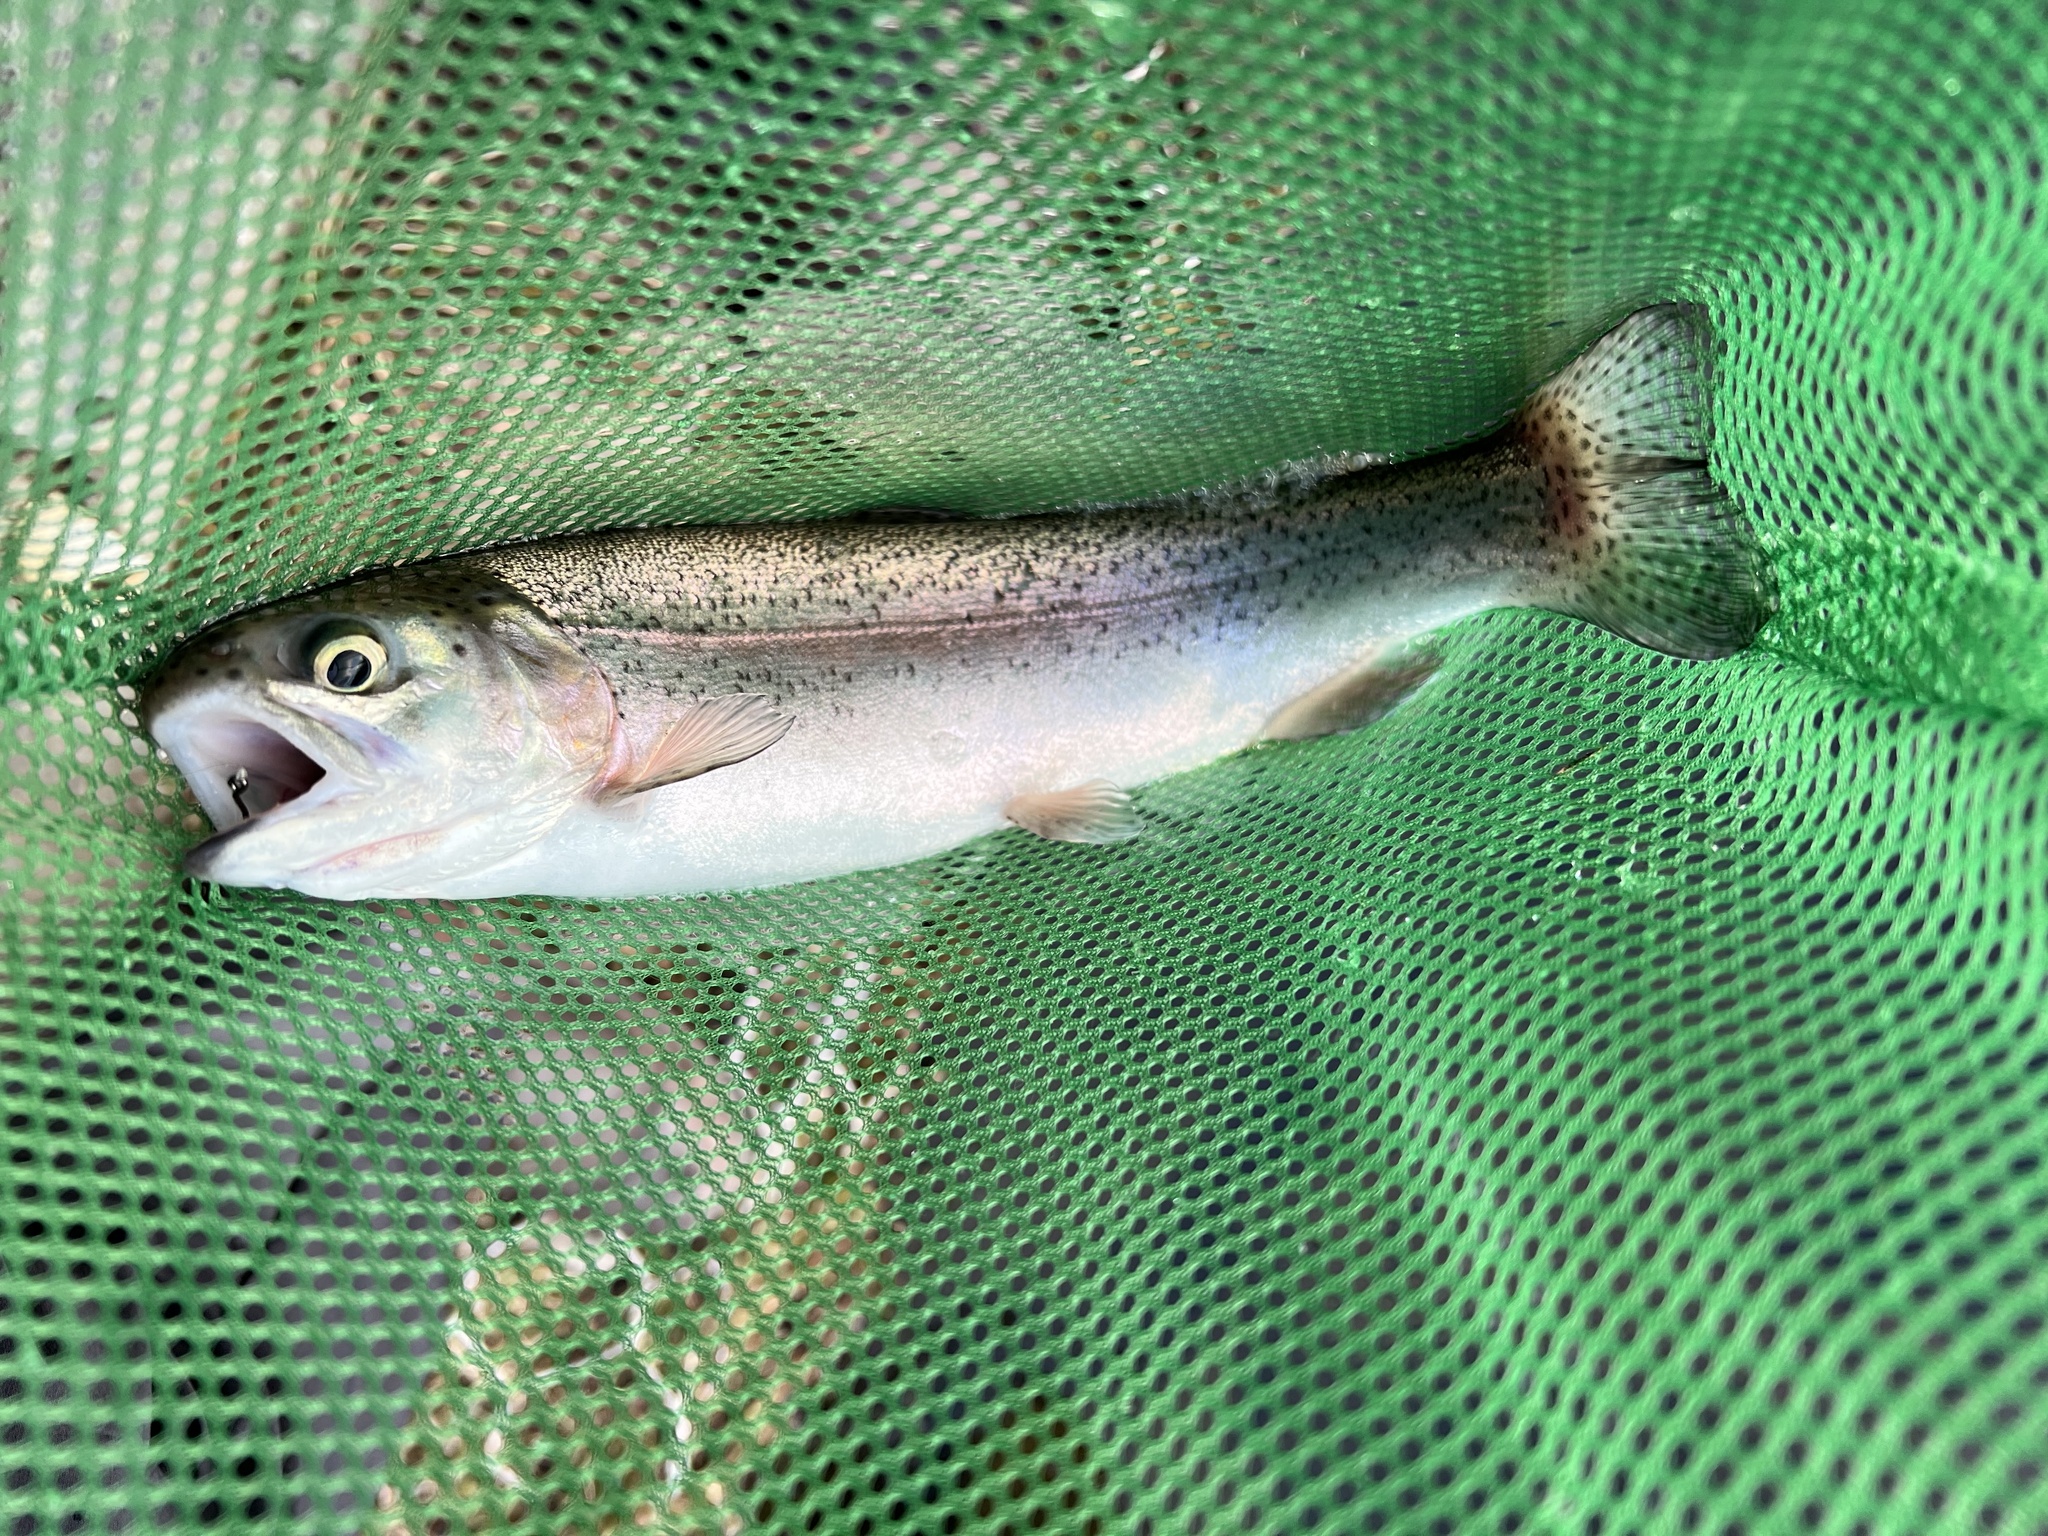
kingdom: Animalia
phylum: Chordata
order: Salmoniformes
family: Salmonidae
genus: Oncorhynchus
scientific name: Oncorhynchus mykiss
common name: Rainbow trout
